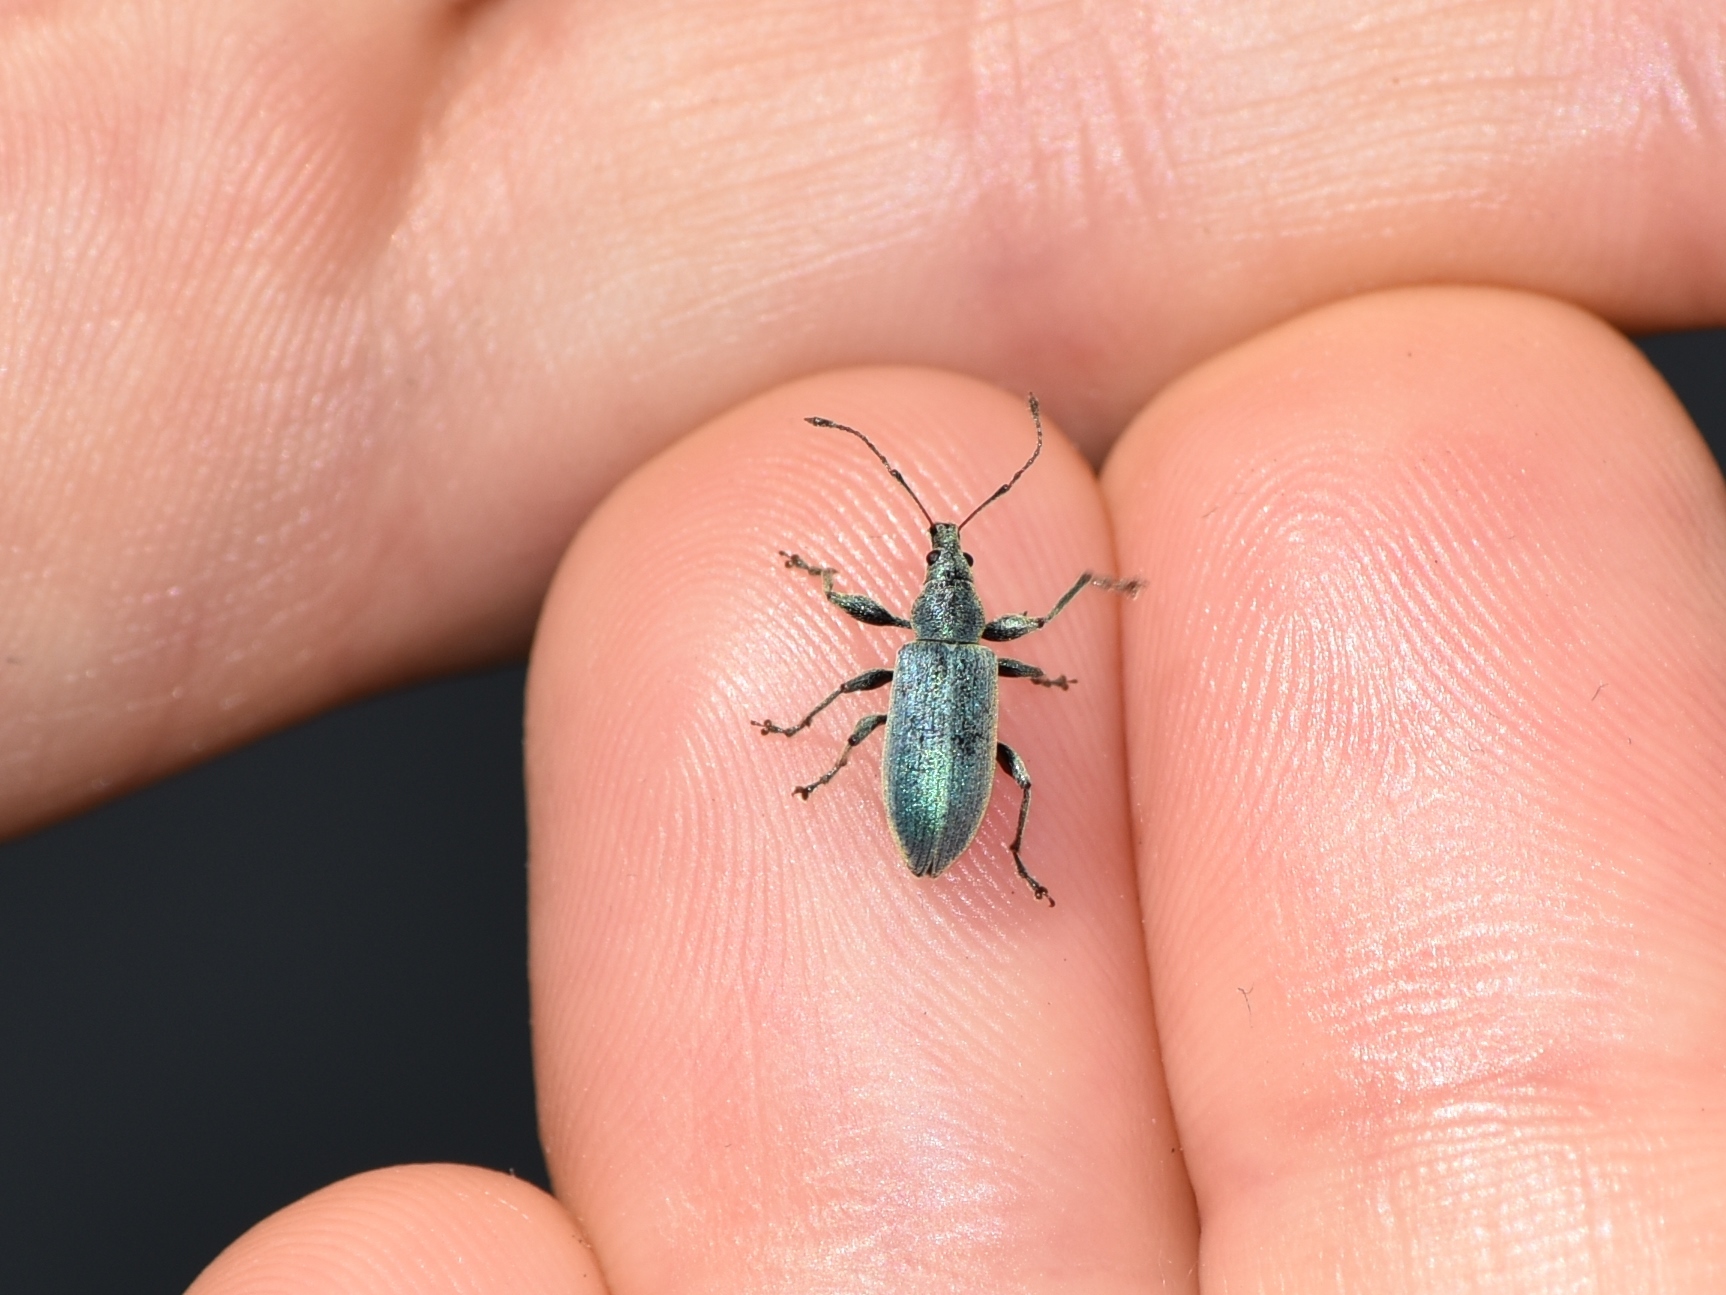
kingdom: Animalia
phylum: Arthropoda
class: Insecta
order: Coleoptera
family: Curculionidae
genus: Phyllobius
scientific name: Phyllobius pomaceus
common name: Green nettle weevil
